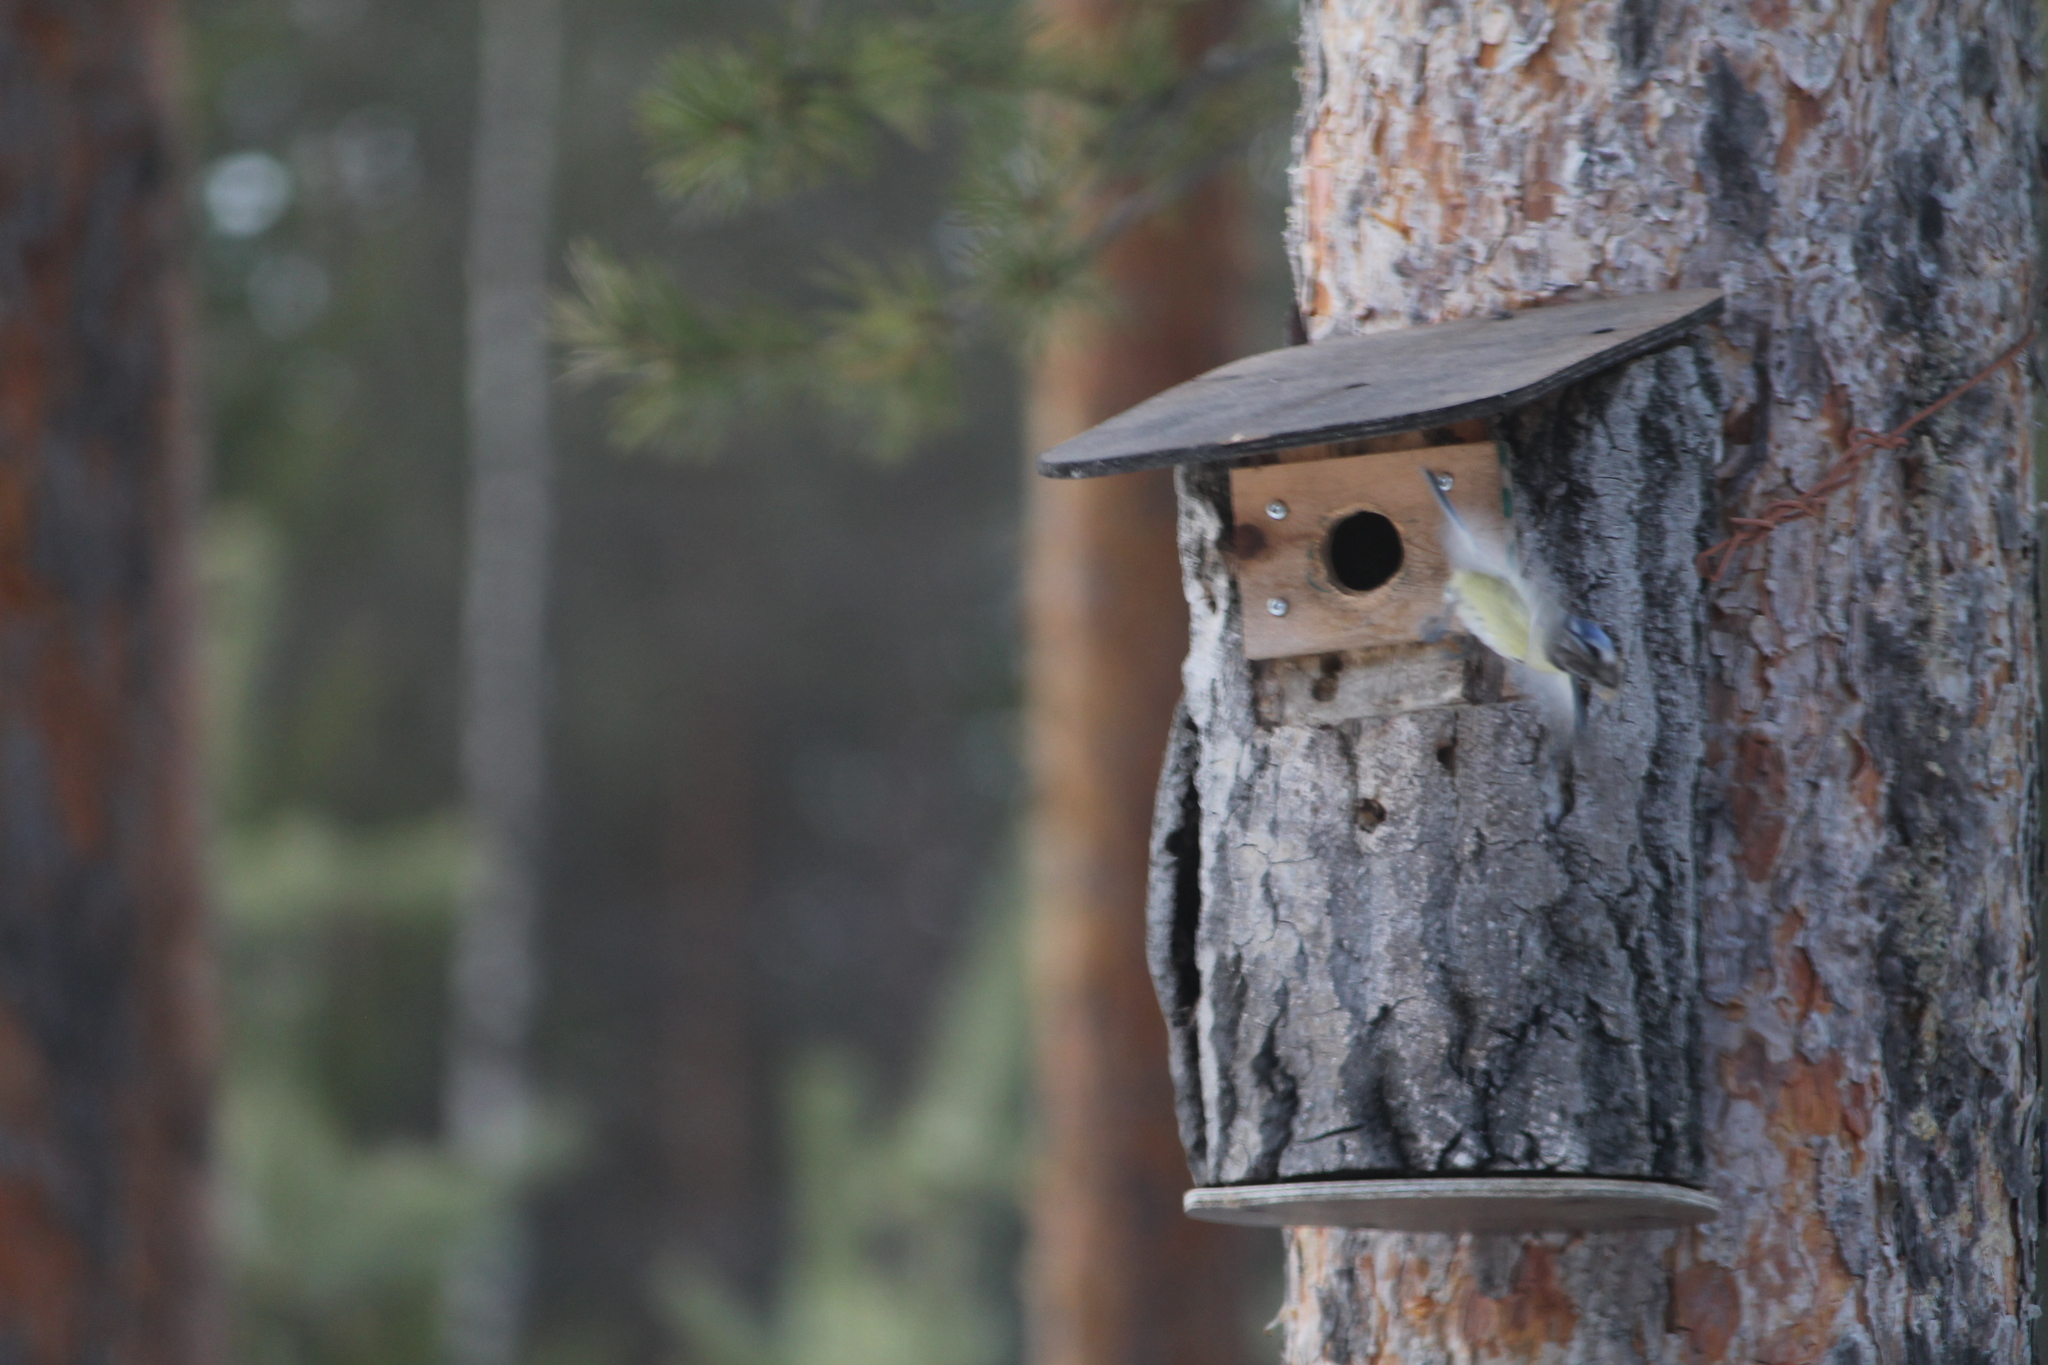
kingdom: Animalia
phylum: Chordata
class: Aves
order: Passeriformes
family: Paridae
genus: Cyanistes
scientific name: Cyanistes caeruleus
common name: Eurasian blue tit
